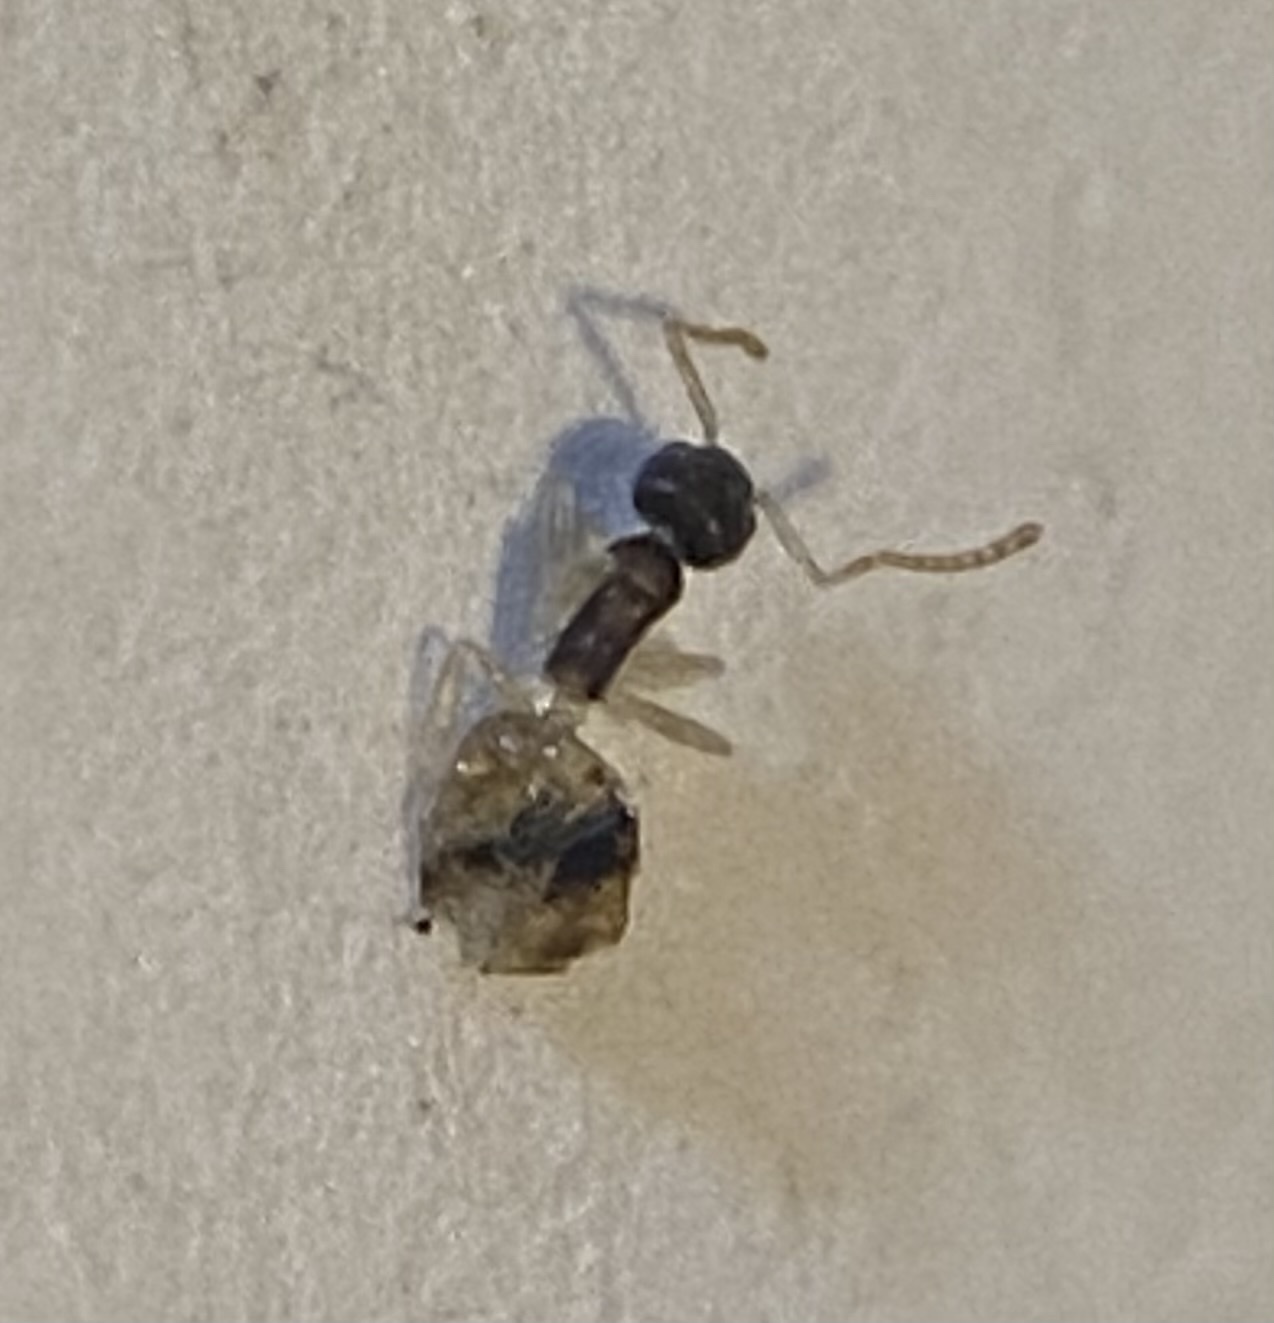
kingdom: Animalia
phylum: Arthropoda
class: Insecta
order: Hymenoptera
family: Formicidae
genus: Tapinoma
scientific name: Tapinoma melanocephalum
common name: Ghost ant
